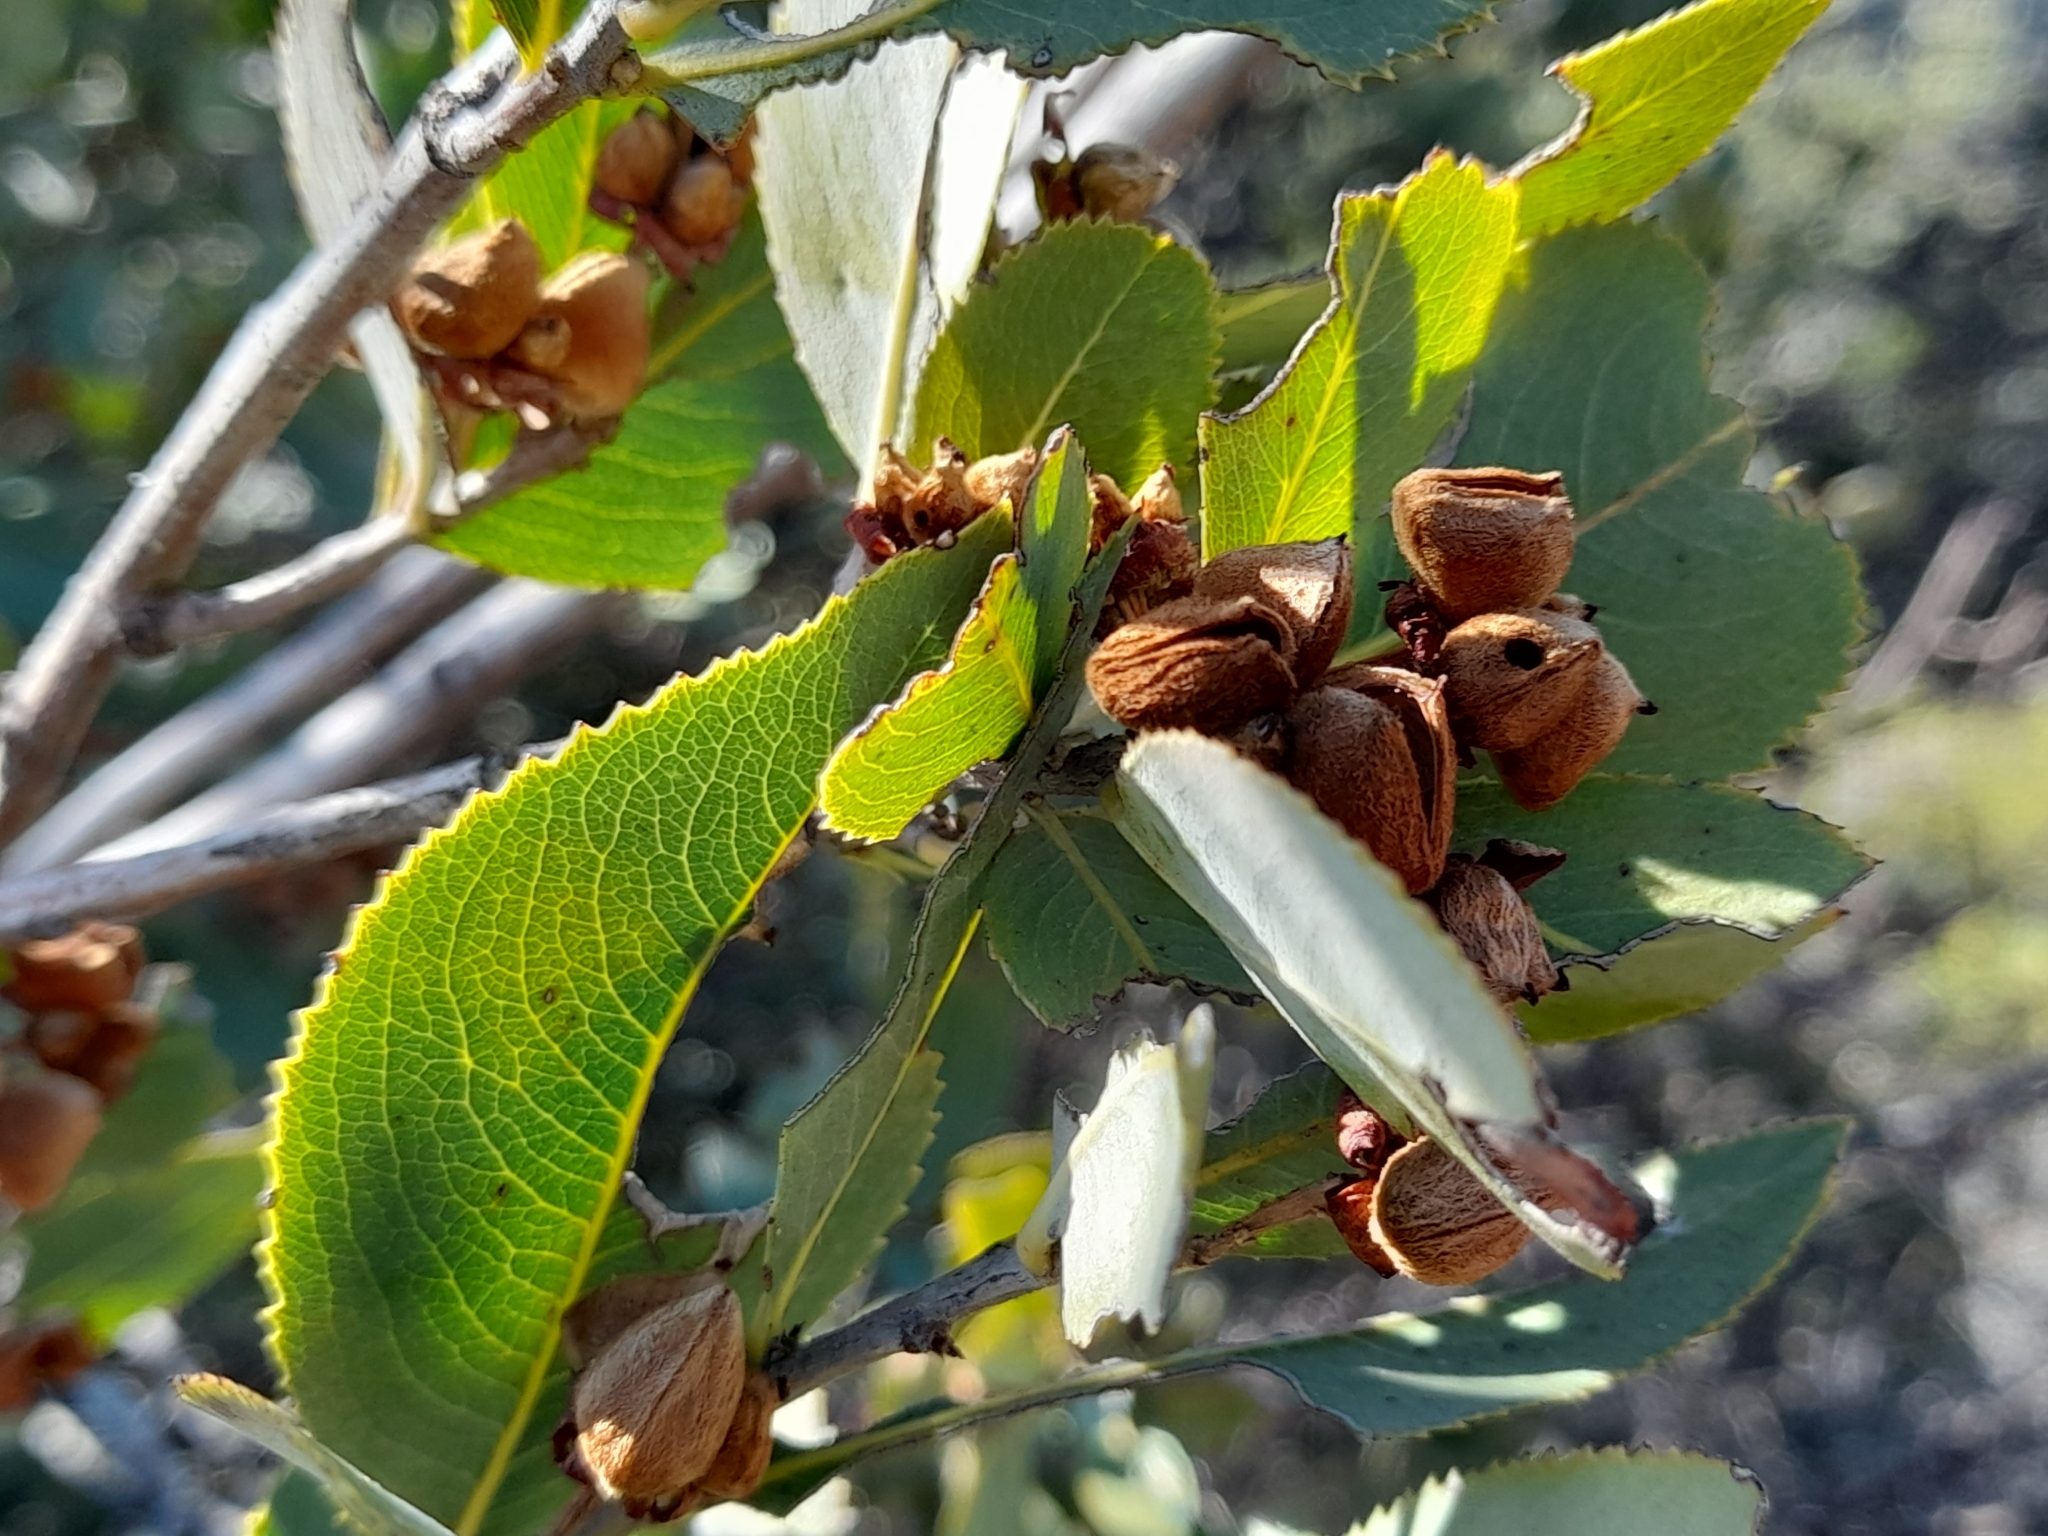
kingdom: Plantae
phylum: Tracheophyta
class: Magnoliopsida
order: Rosales
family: Rosaceae
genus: Kageneckia
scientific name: Kageneckia oblonga
